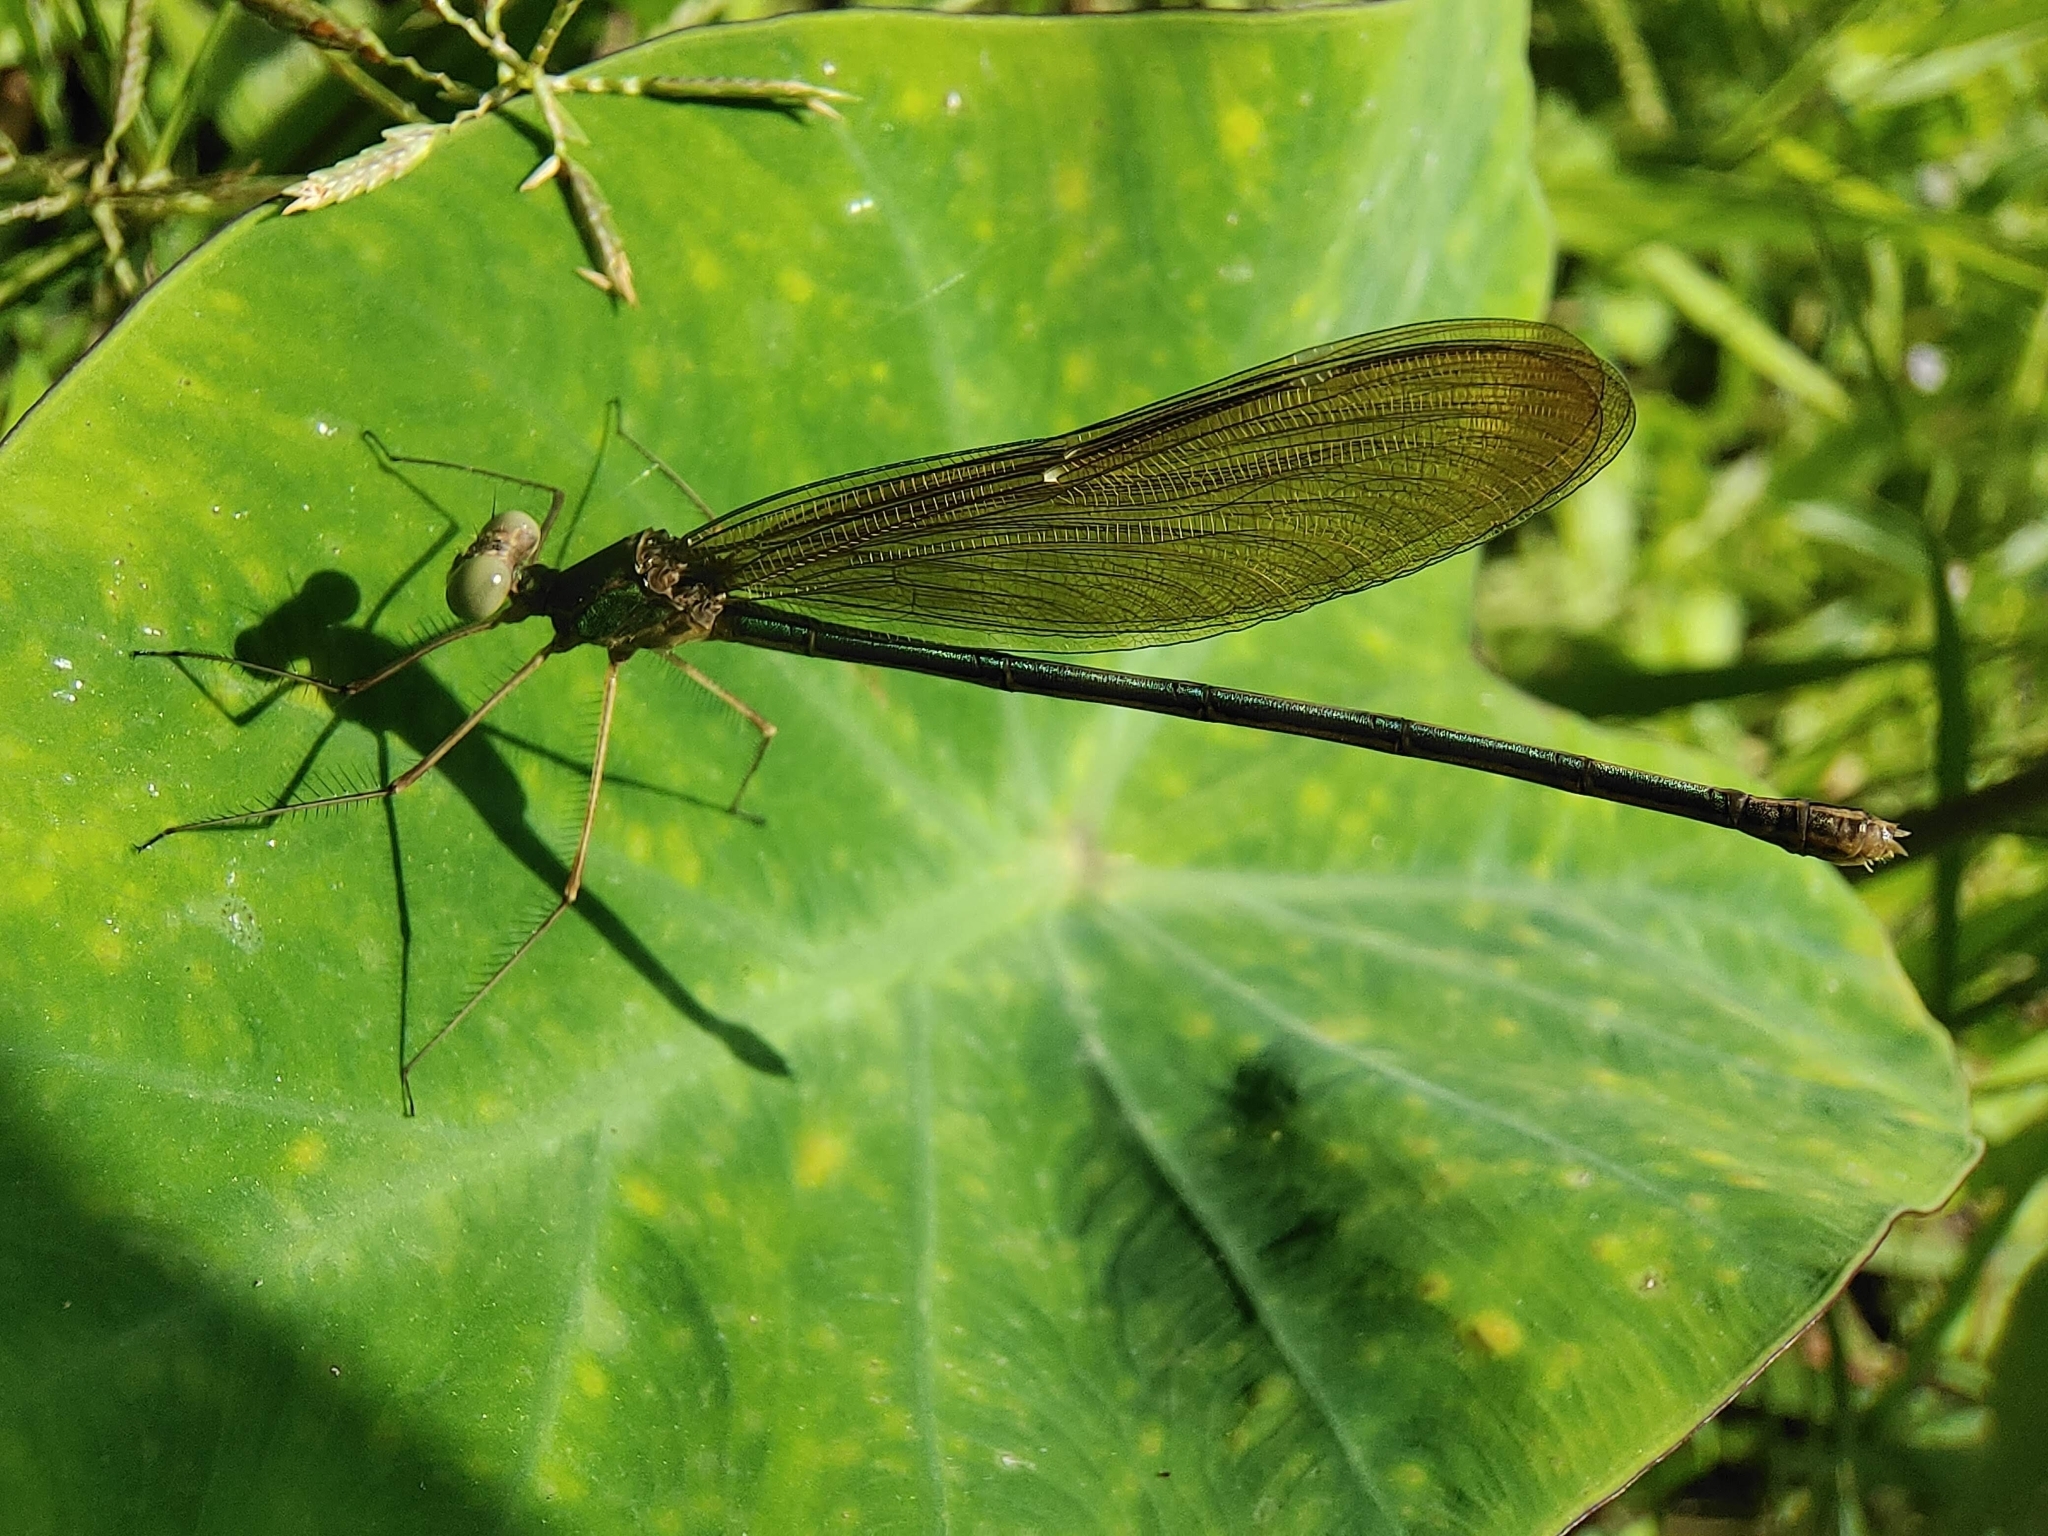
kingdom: Animalia
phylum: Arthropoda
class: Insecta
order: Odonata
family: Calopterygidae
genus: Neurobasis
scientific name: Neurobasis chinensis
